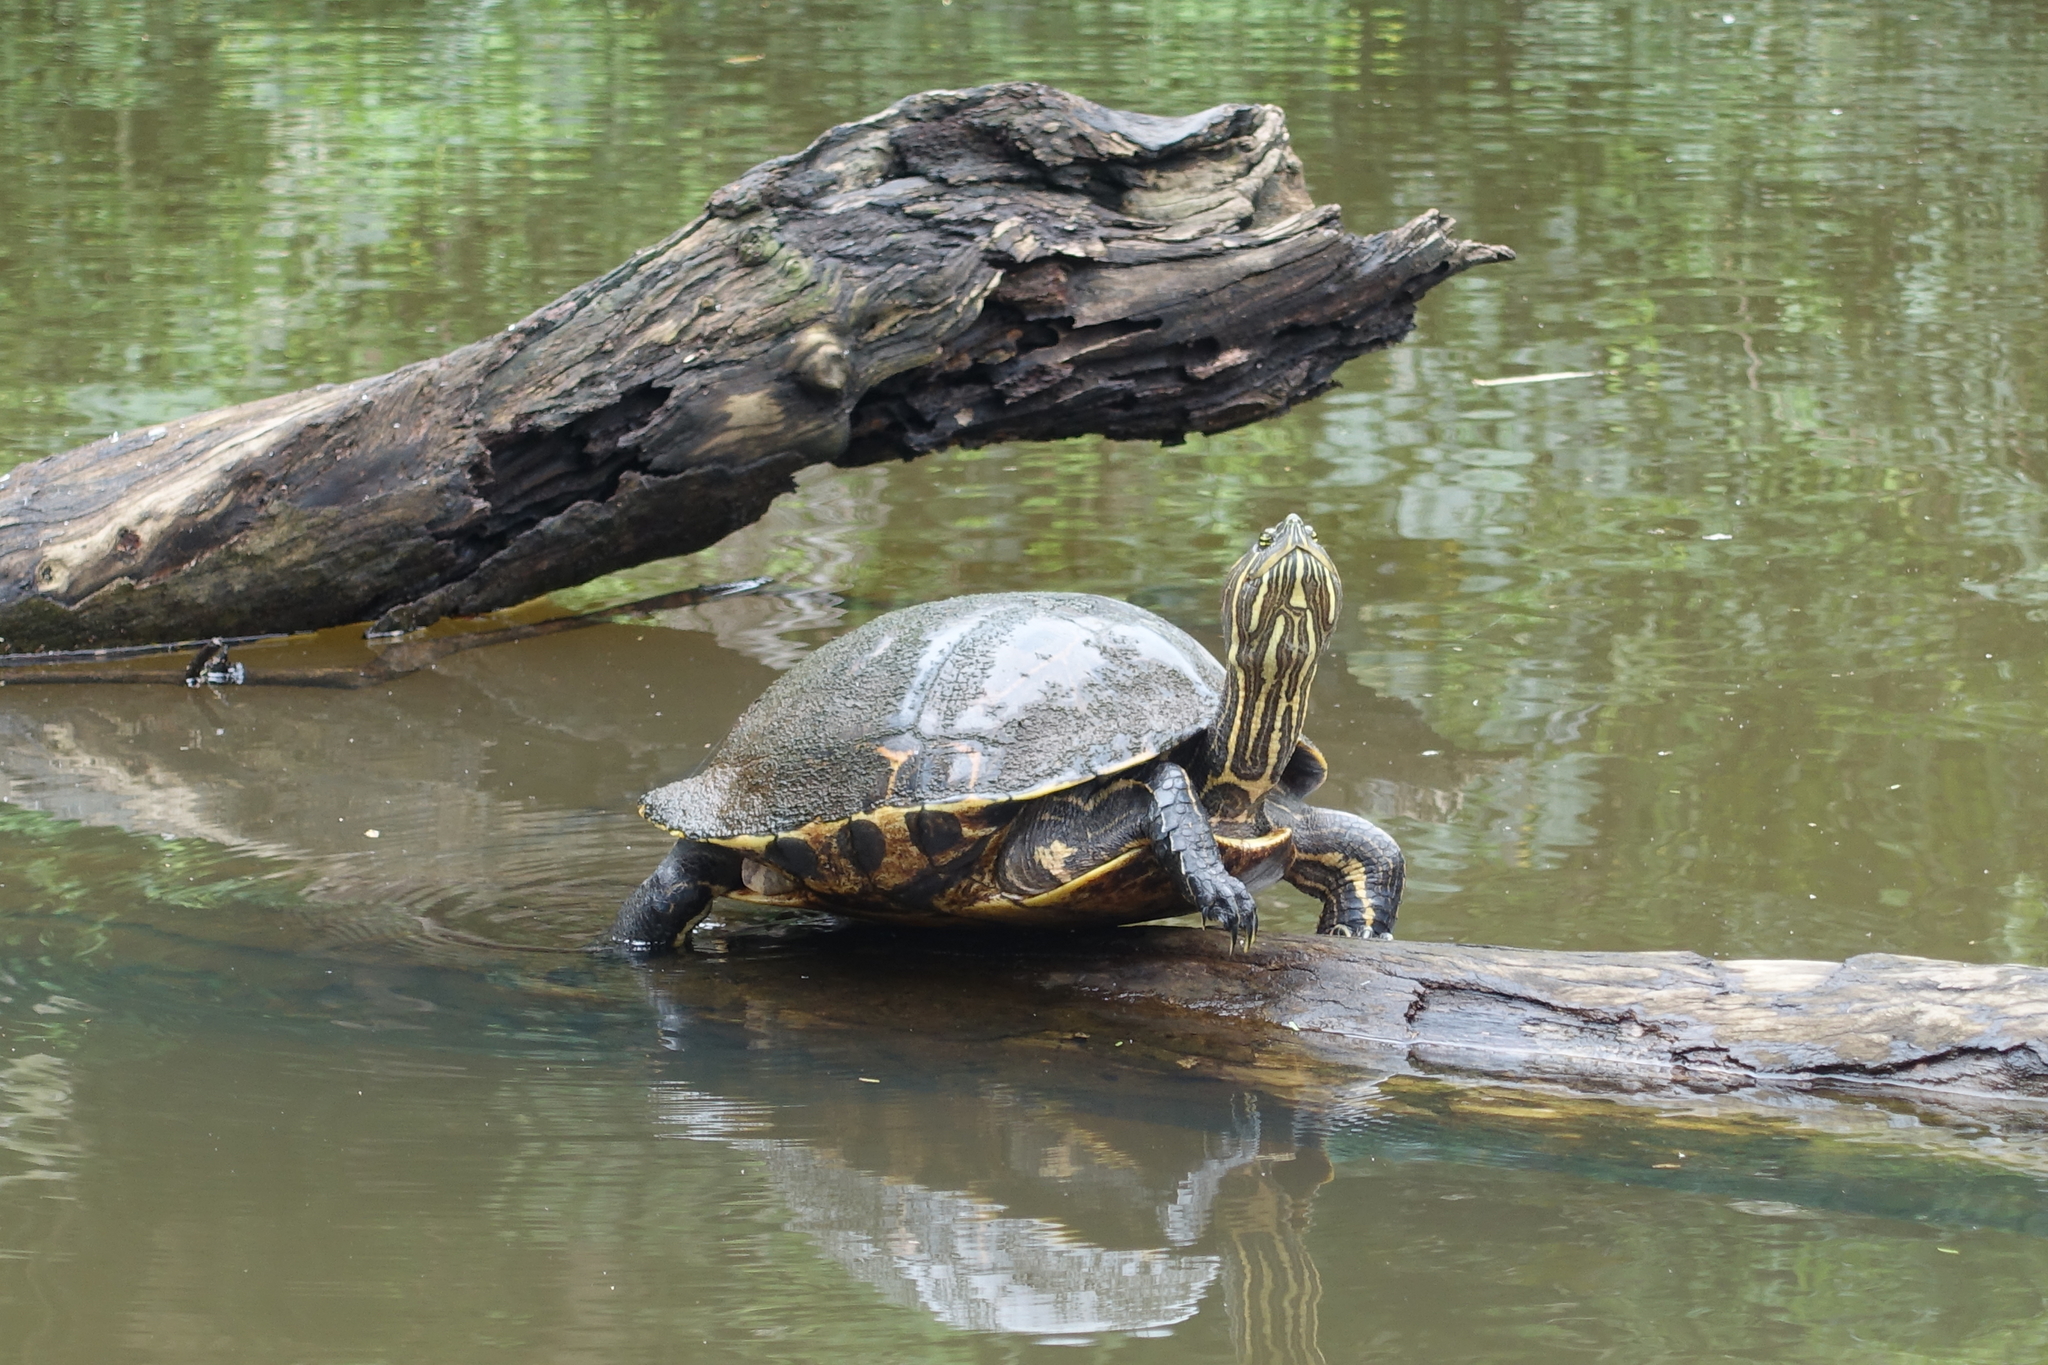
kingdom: Animalia
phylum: Chordata
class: Testudines
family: Emydidae
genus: Trachemys
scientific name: Trachemys venusta
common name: Mesoamerican slider
